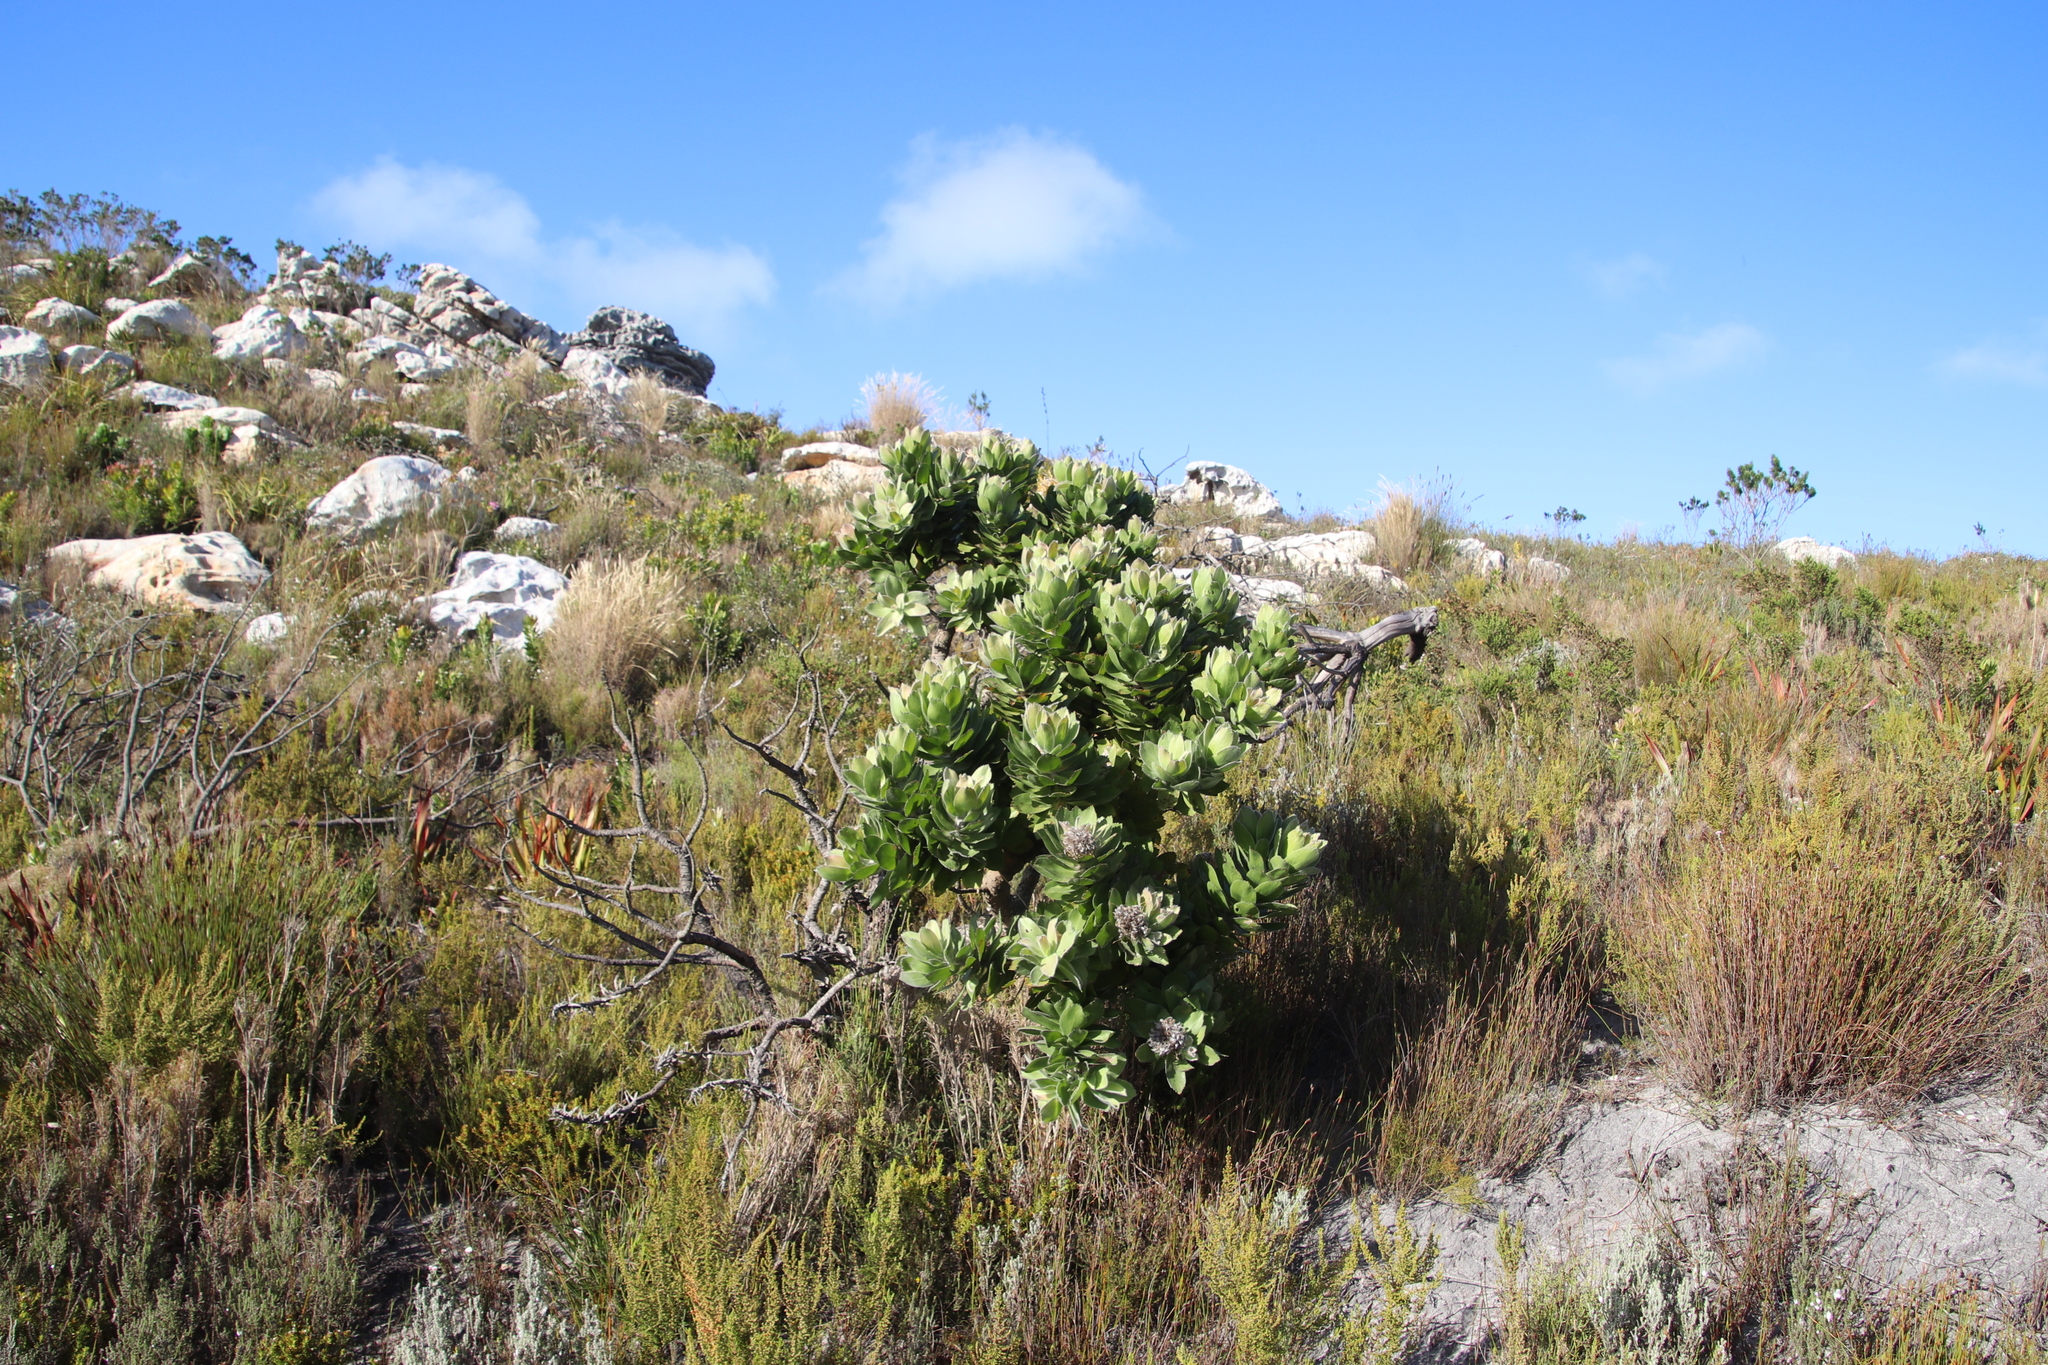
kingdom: Plantae
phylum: Tracheophyta
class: Magnoliopsida
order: Proteales
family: Proteaceae
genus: Leucospermum
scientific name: Leucospermum conocarpodendron
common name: Tree pincushion
